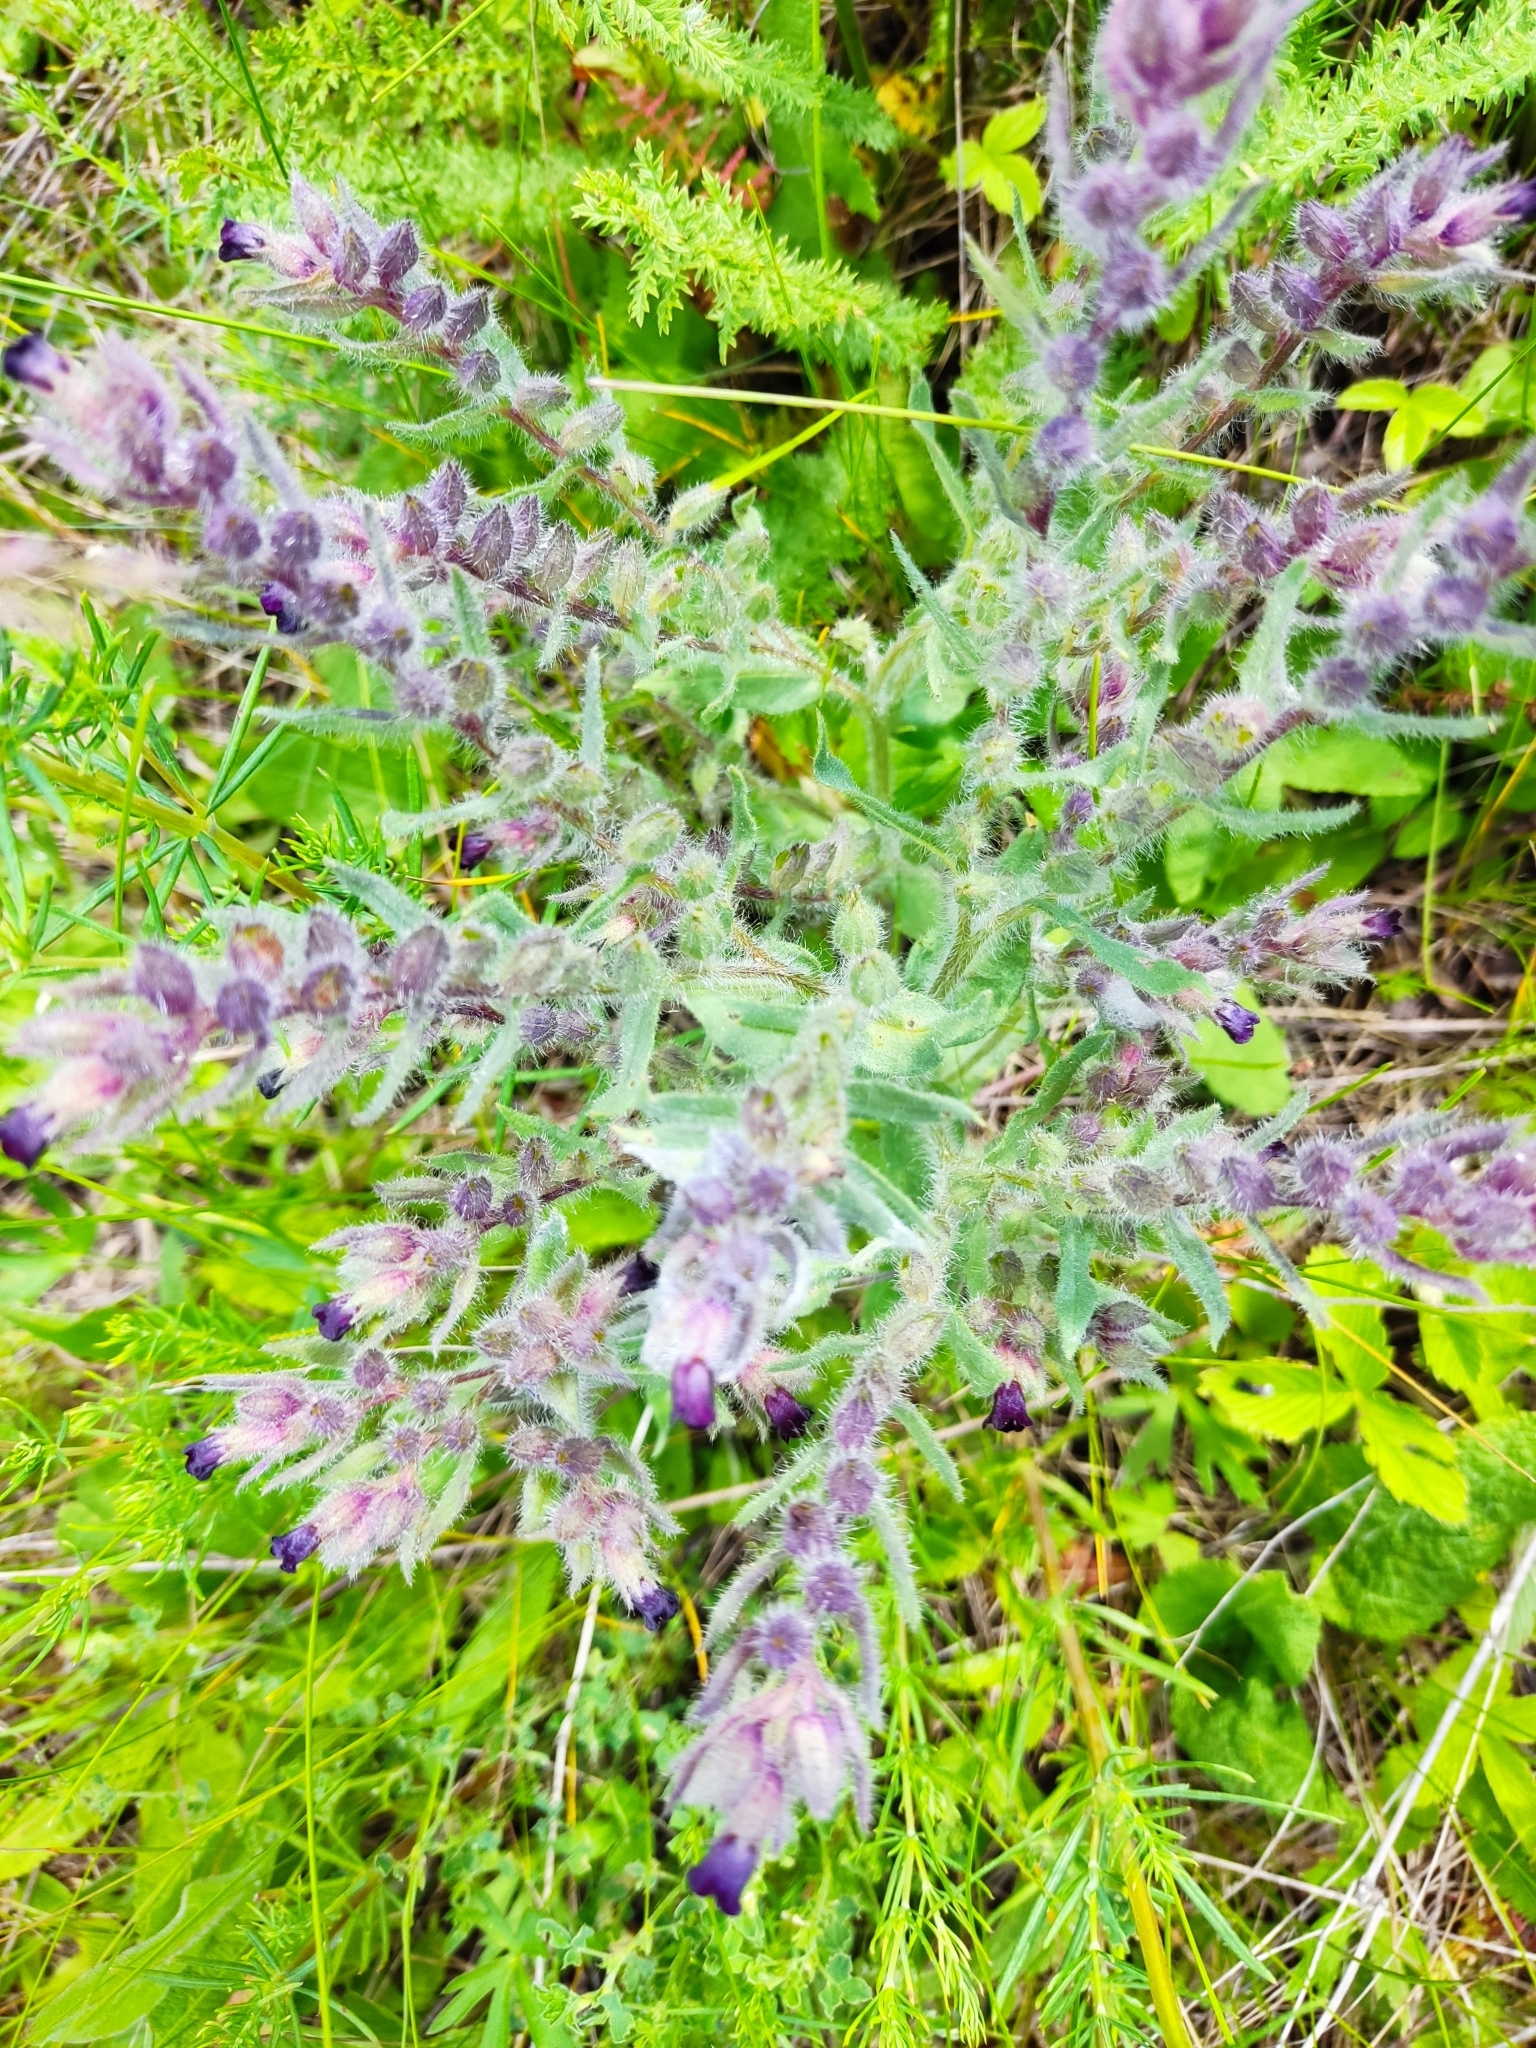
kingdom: Plantae
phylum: Tracheophyta
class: Magnoliopsida
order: Boraginales
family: Boraginaceae
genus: Nonea
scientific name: Nonea pulla
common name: Brown nonea
